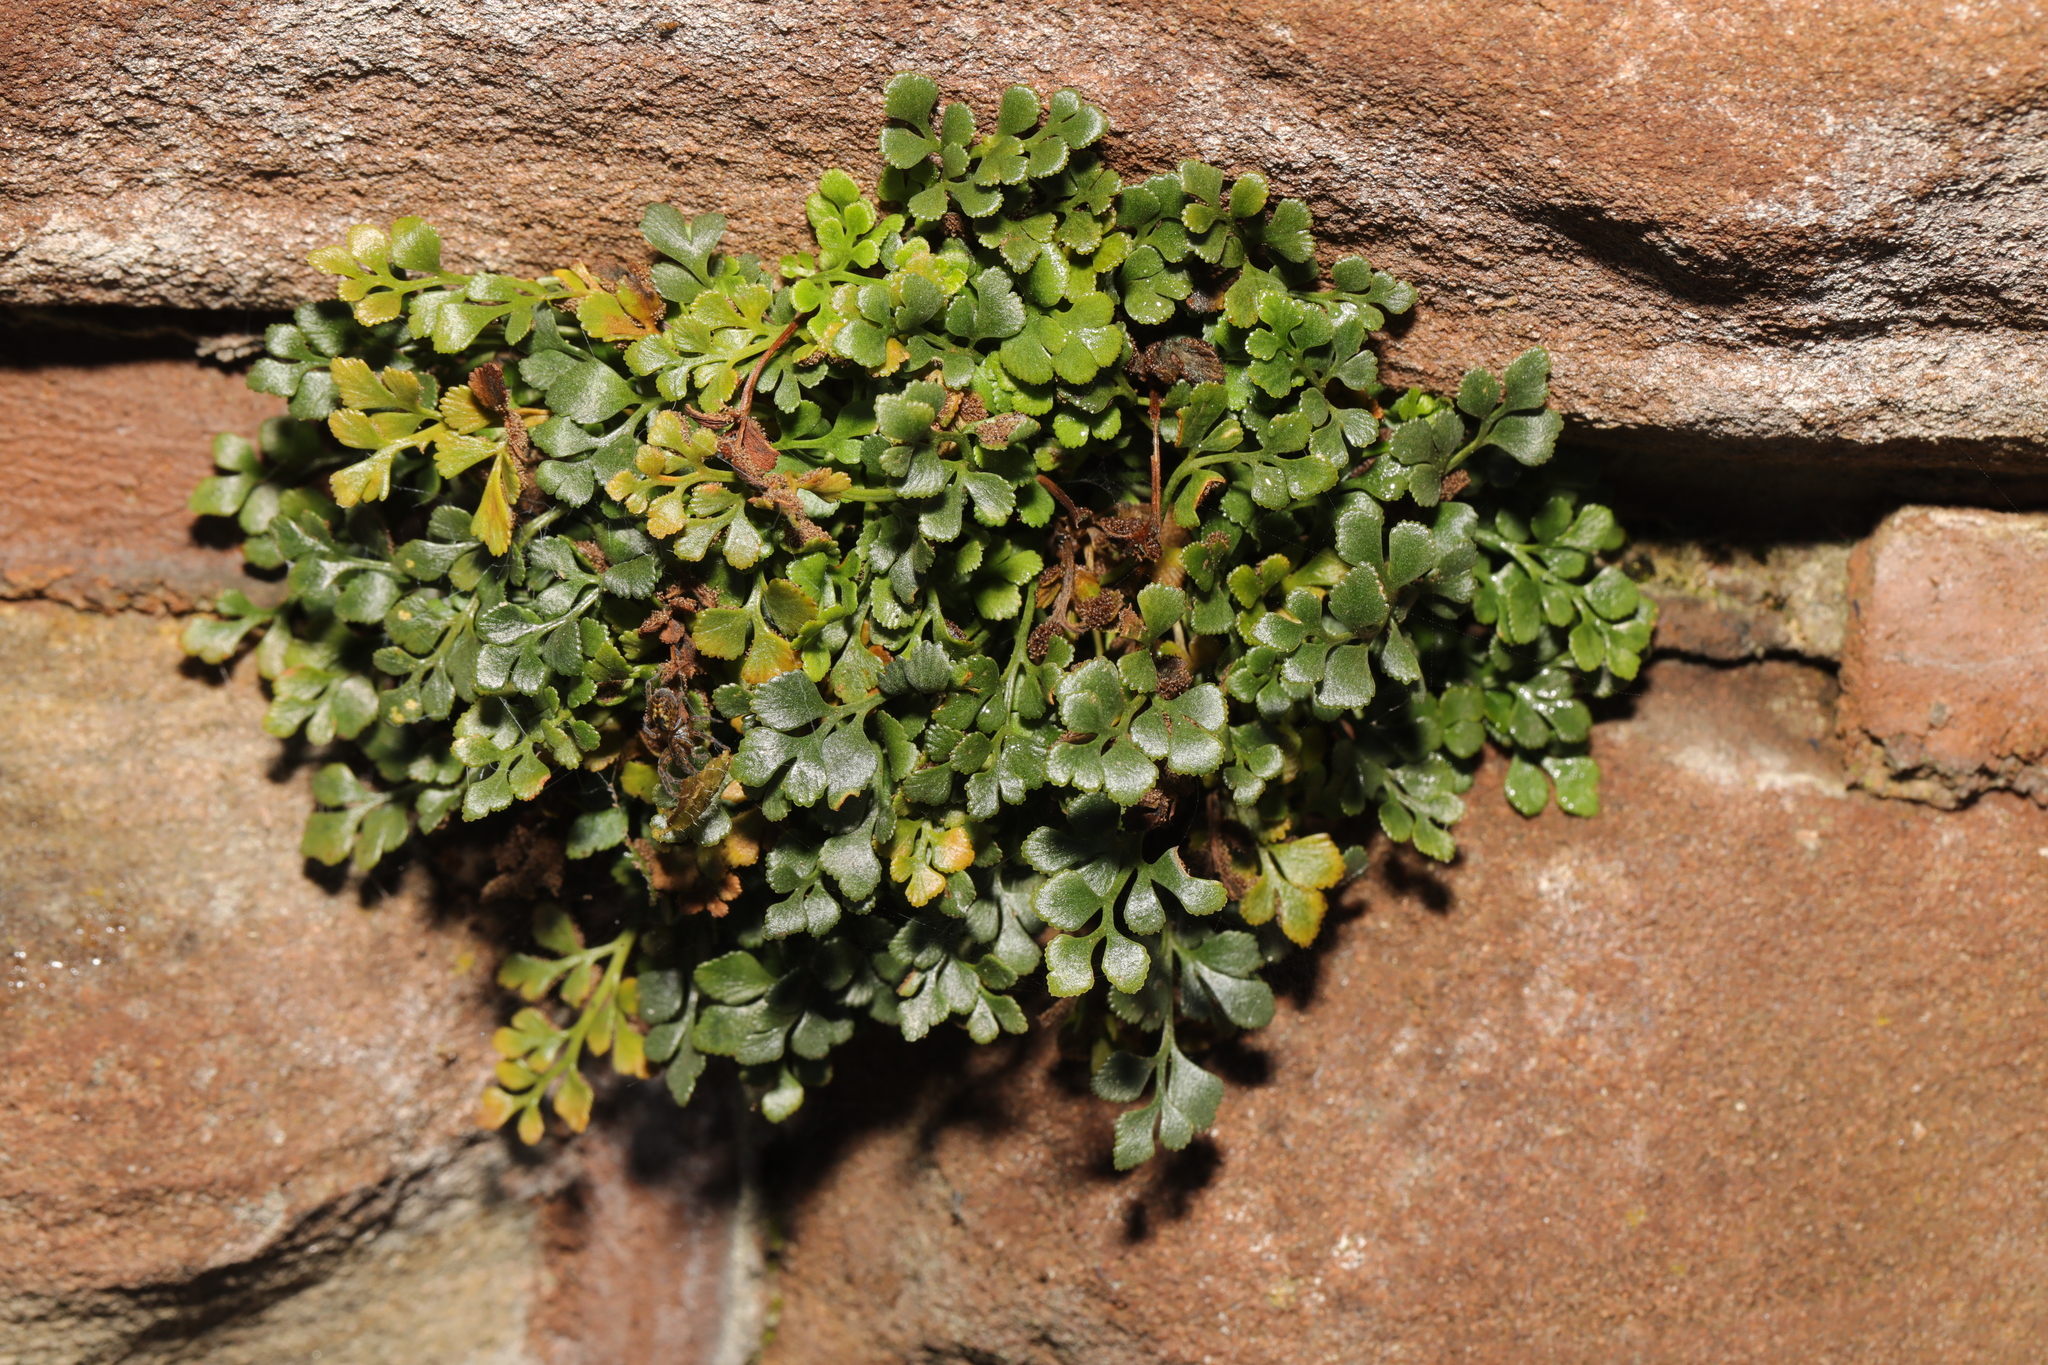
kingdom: Plantae
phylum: Tracheophyta
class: Polypodiopsida
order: Polypodiales
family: Aspleniaceae
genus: Asplenium
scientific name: Asplenium ruta-muraria
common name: Wall-rue
